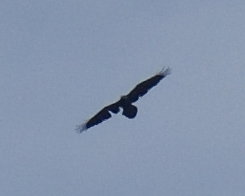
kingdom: Animalia
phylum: Chordata
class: Aves
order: Passeriformes
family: Corvidae
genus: Corvus
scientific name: Corvus corax
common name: Common raven
